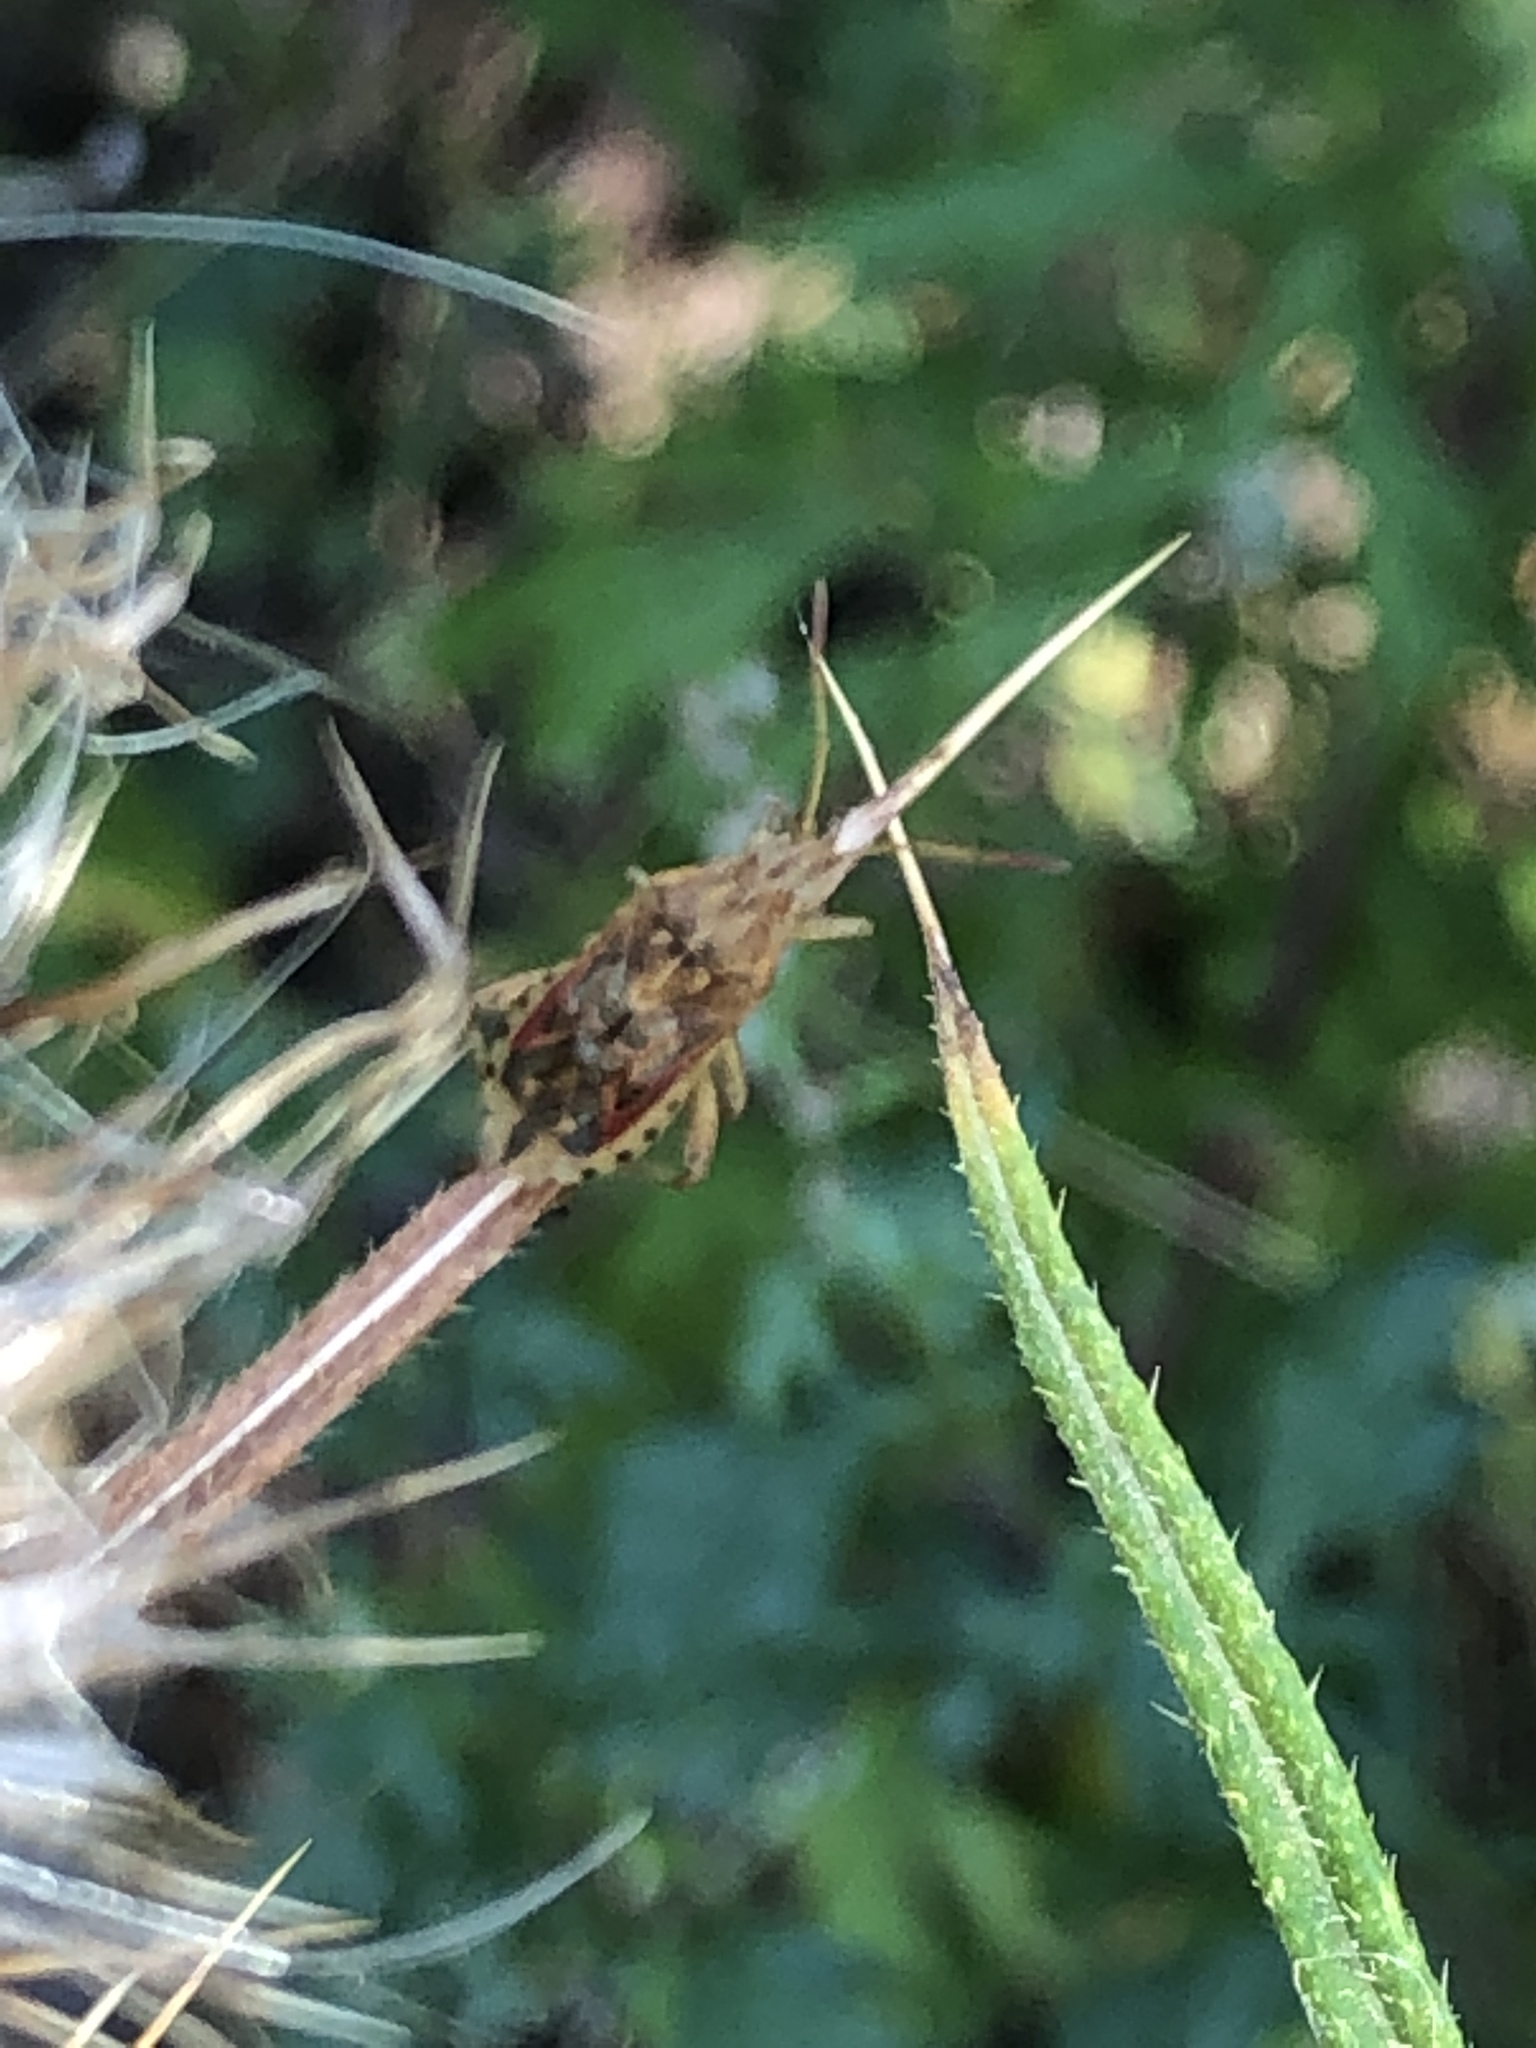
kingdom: Animalia
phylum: Arthropoda
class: Insecta
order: Hemiptera
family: Rhopalidae
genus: Stictopleurus
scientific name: Stictopleurus abutilon
